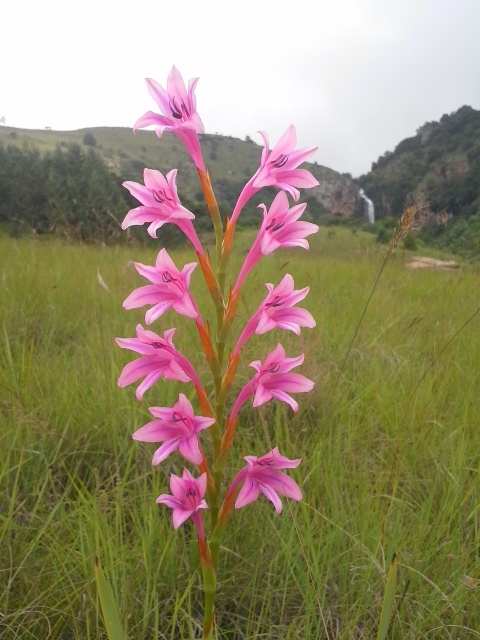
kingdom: Plantae
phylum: Tracheophyta
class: Liliopsida
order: Asparagales
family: Iridaceae
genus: Watsonia
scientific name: Watsonia wilmsii
